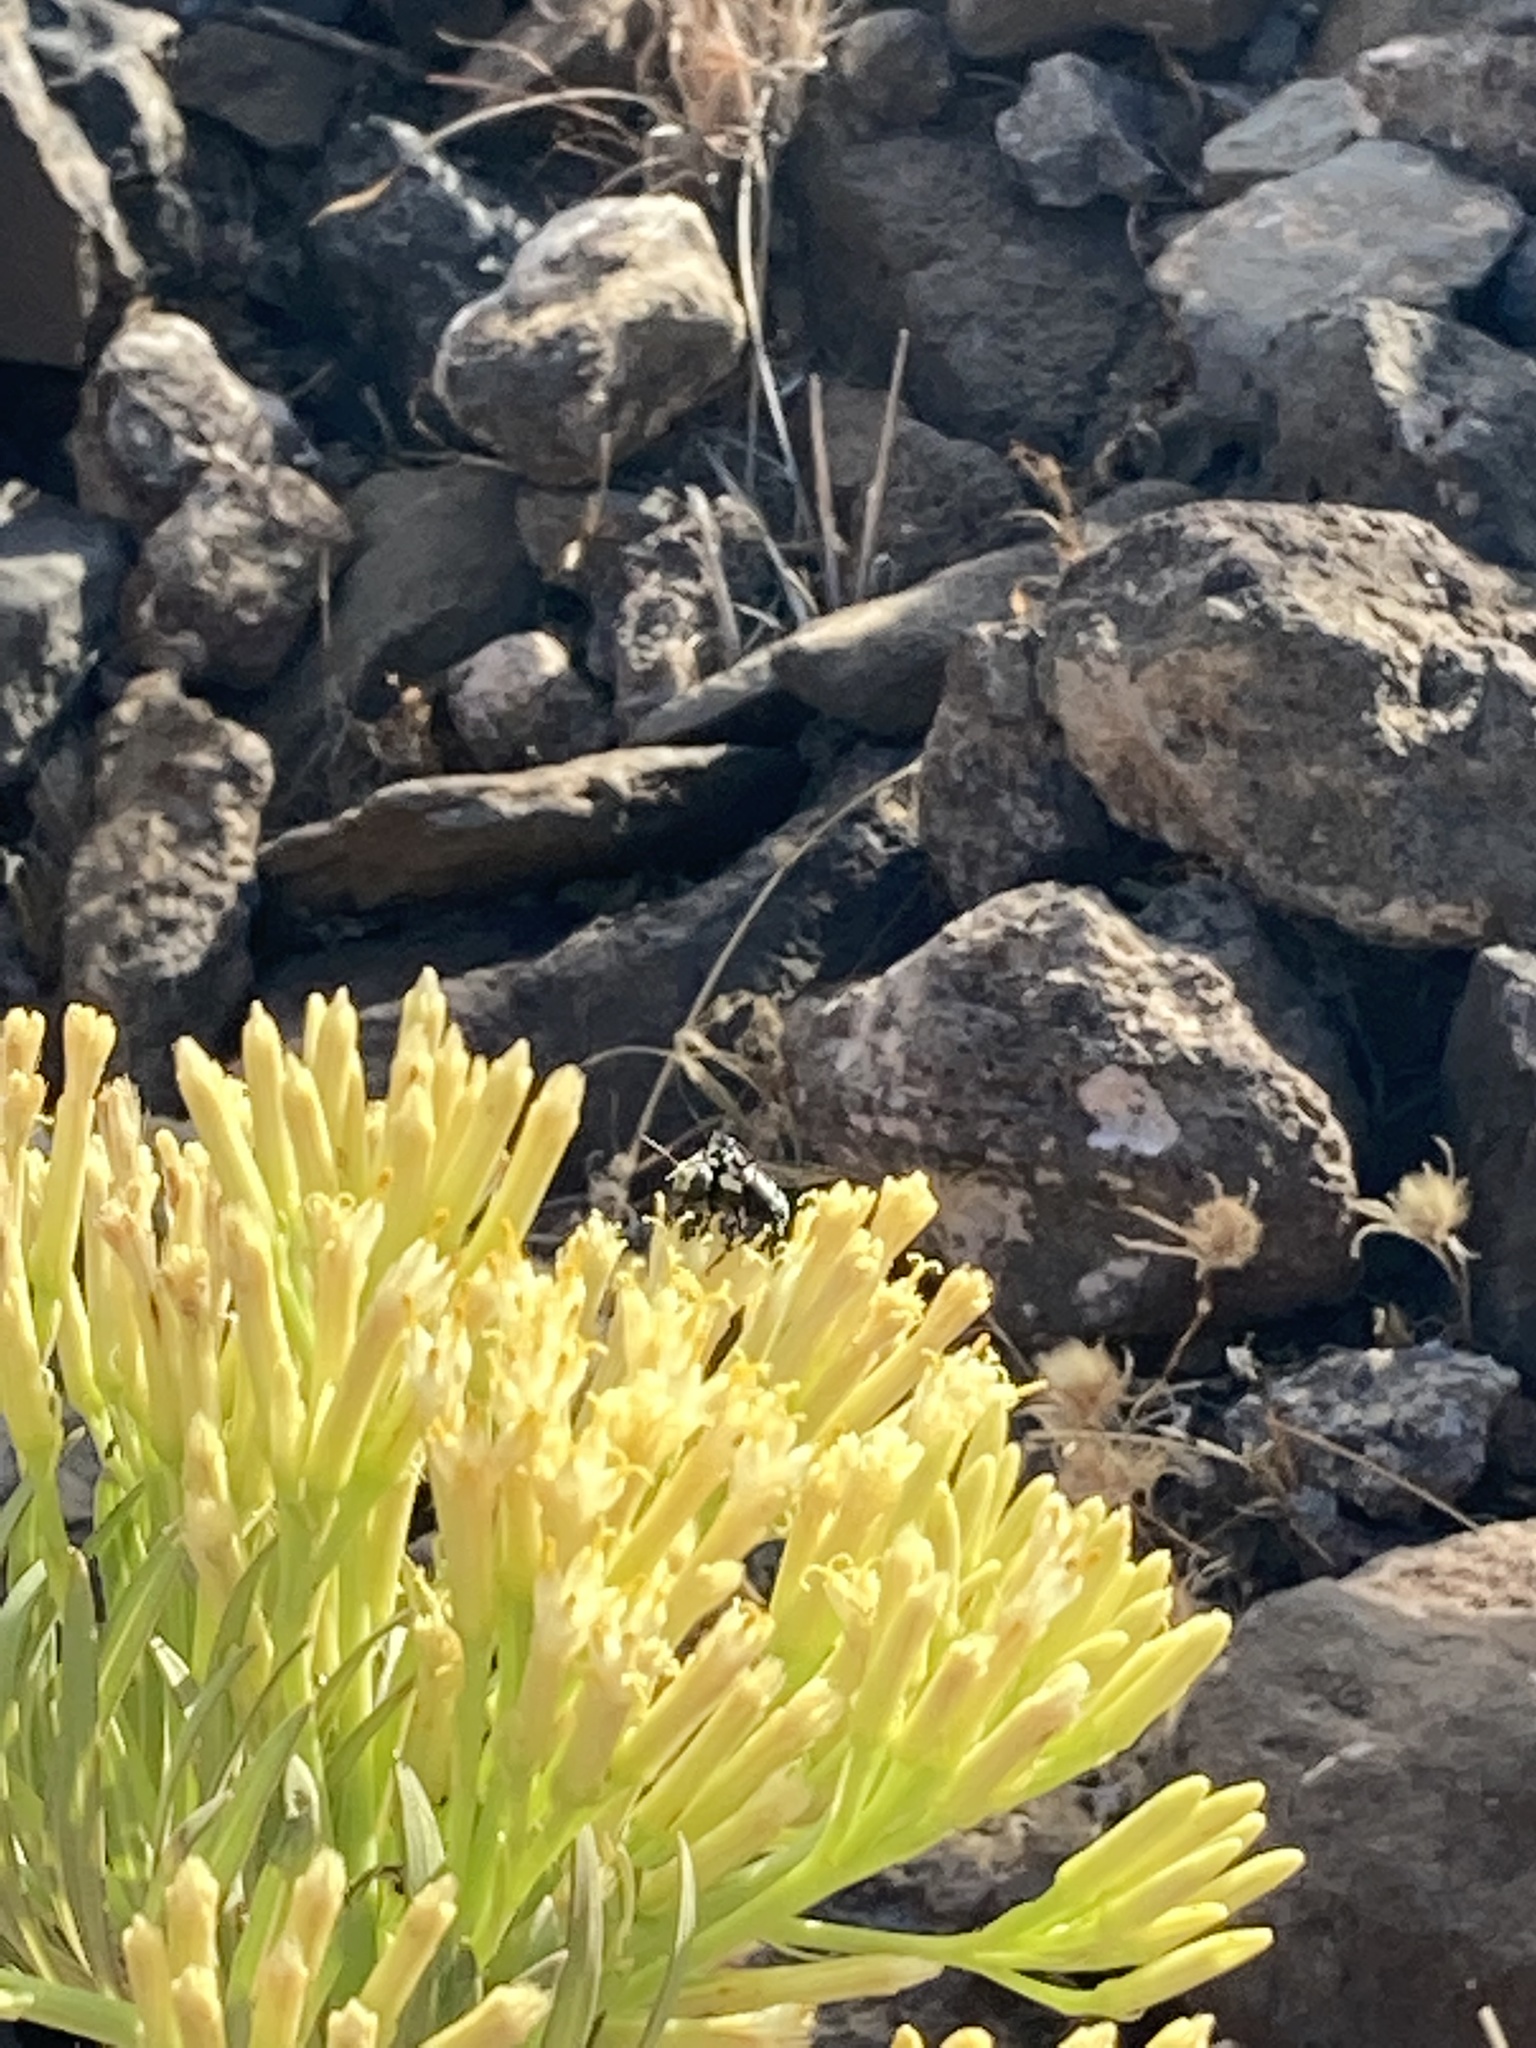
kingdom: Animalia
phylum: Arthropoda
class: Insecta
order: Hymenoptera
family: Apidae
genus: Thyreus
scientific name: Thyreus histrionicus
